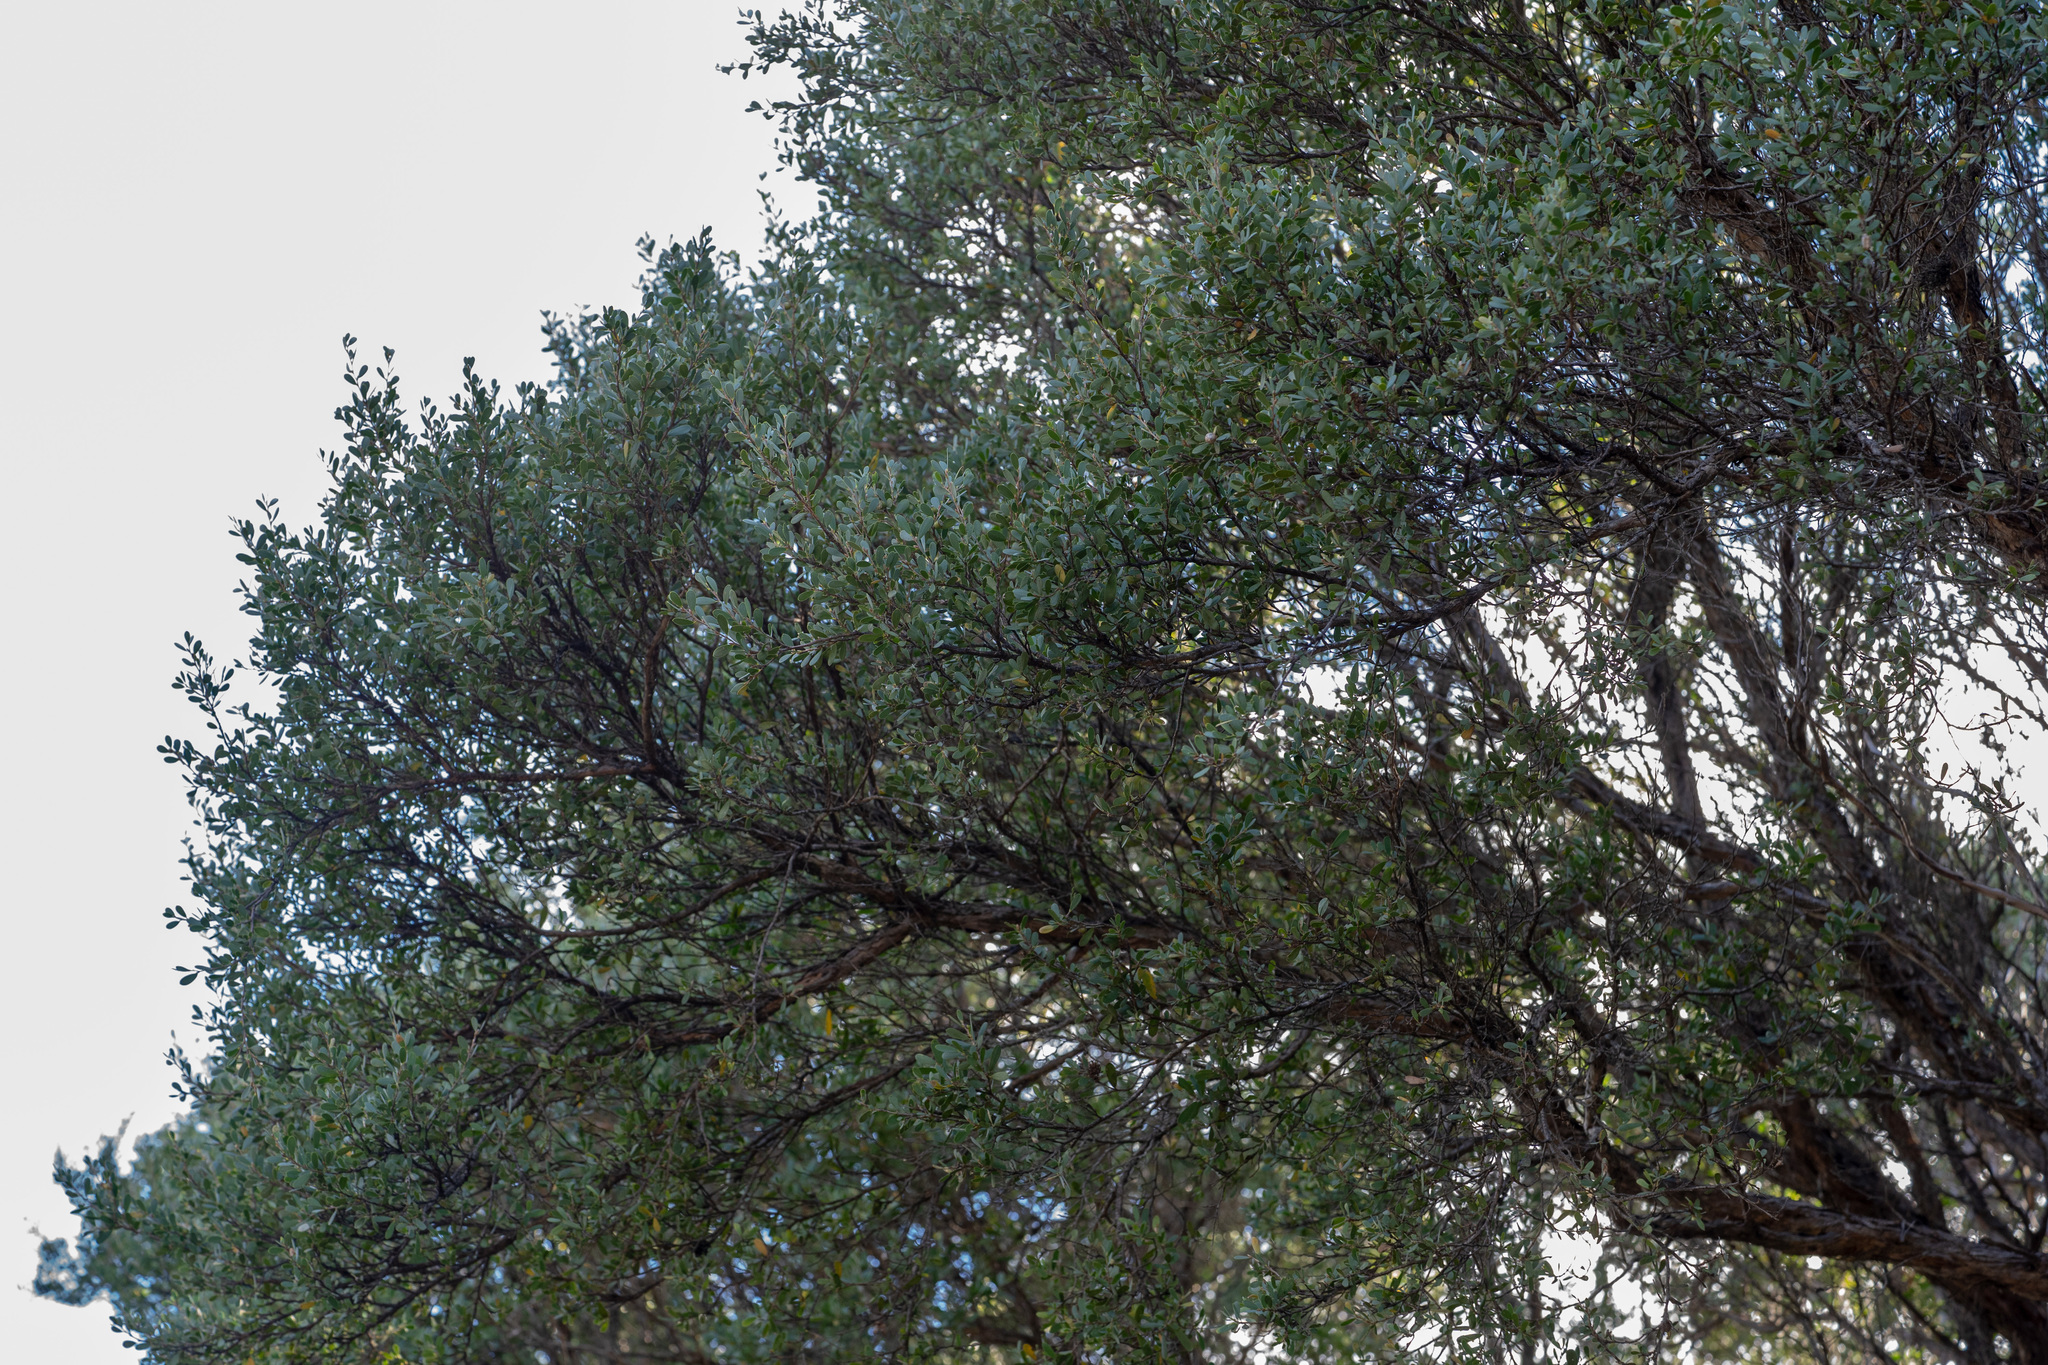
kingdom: Plantae
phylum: Tracheophyta
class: Magnoliopsida
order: Myrtales
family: Myrtaceae
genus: Leptospermum
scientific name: Leptospermum laevigatum
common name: Australian teatree
